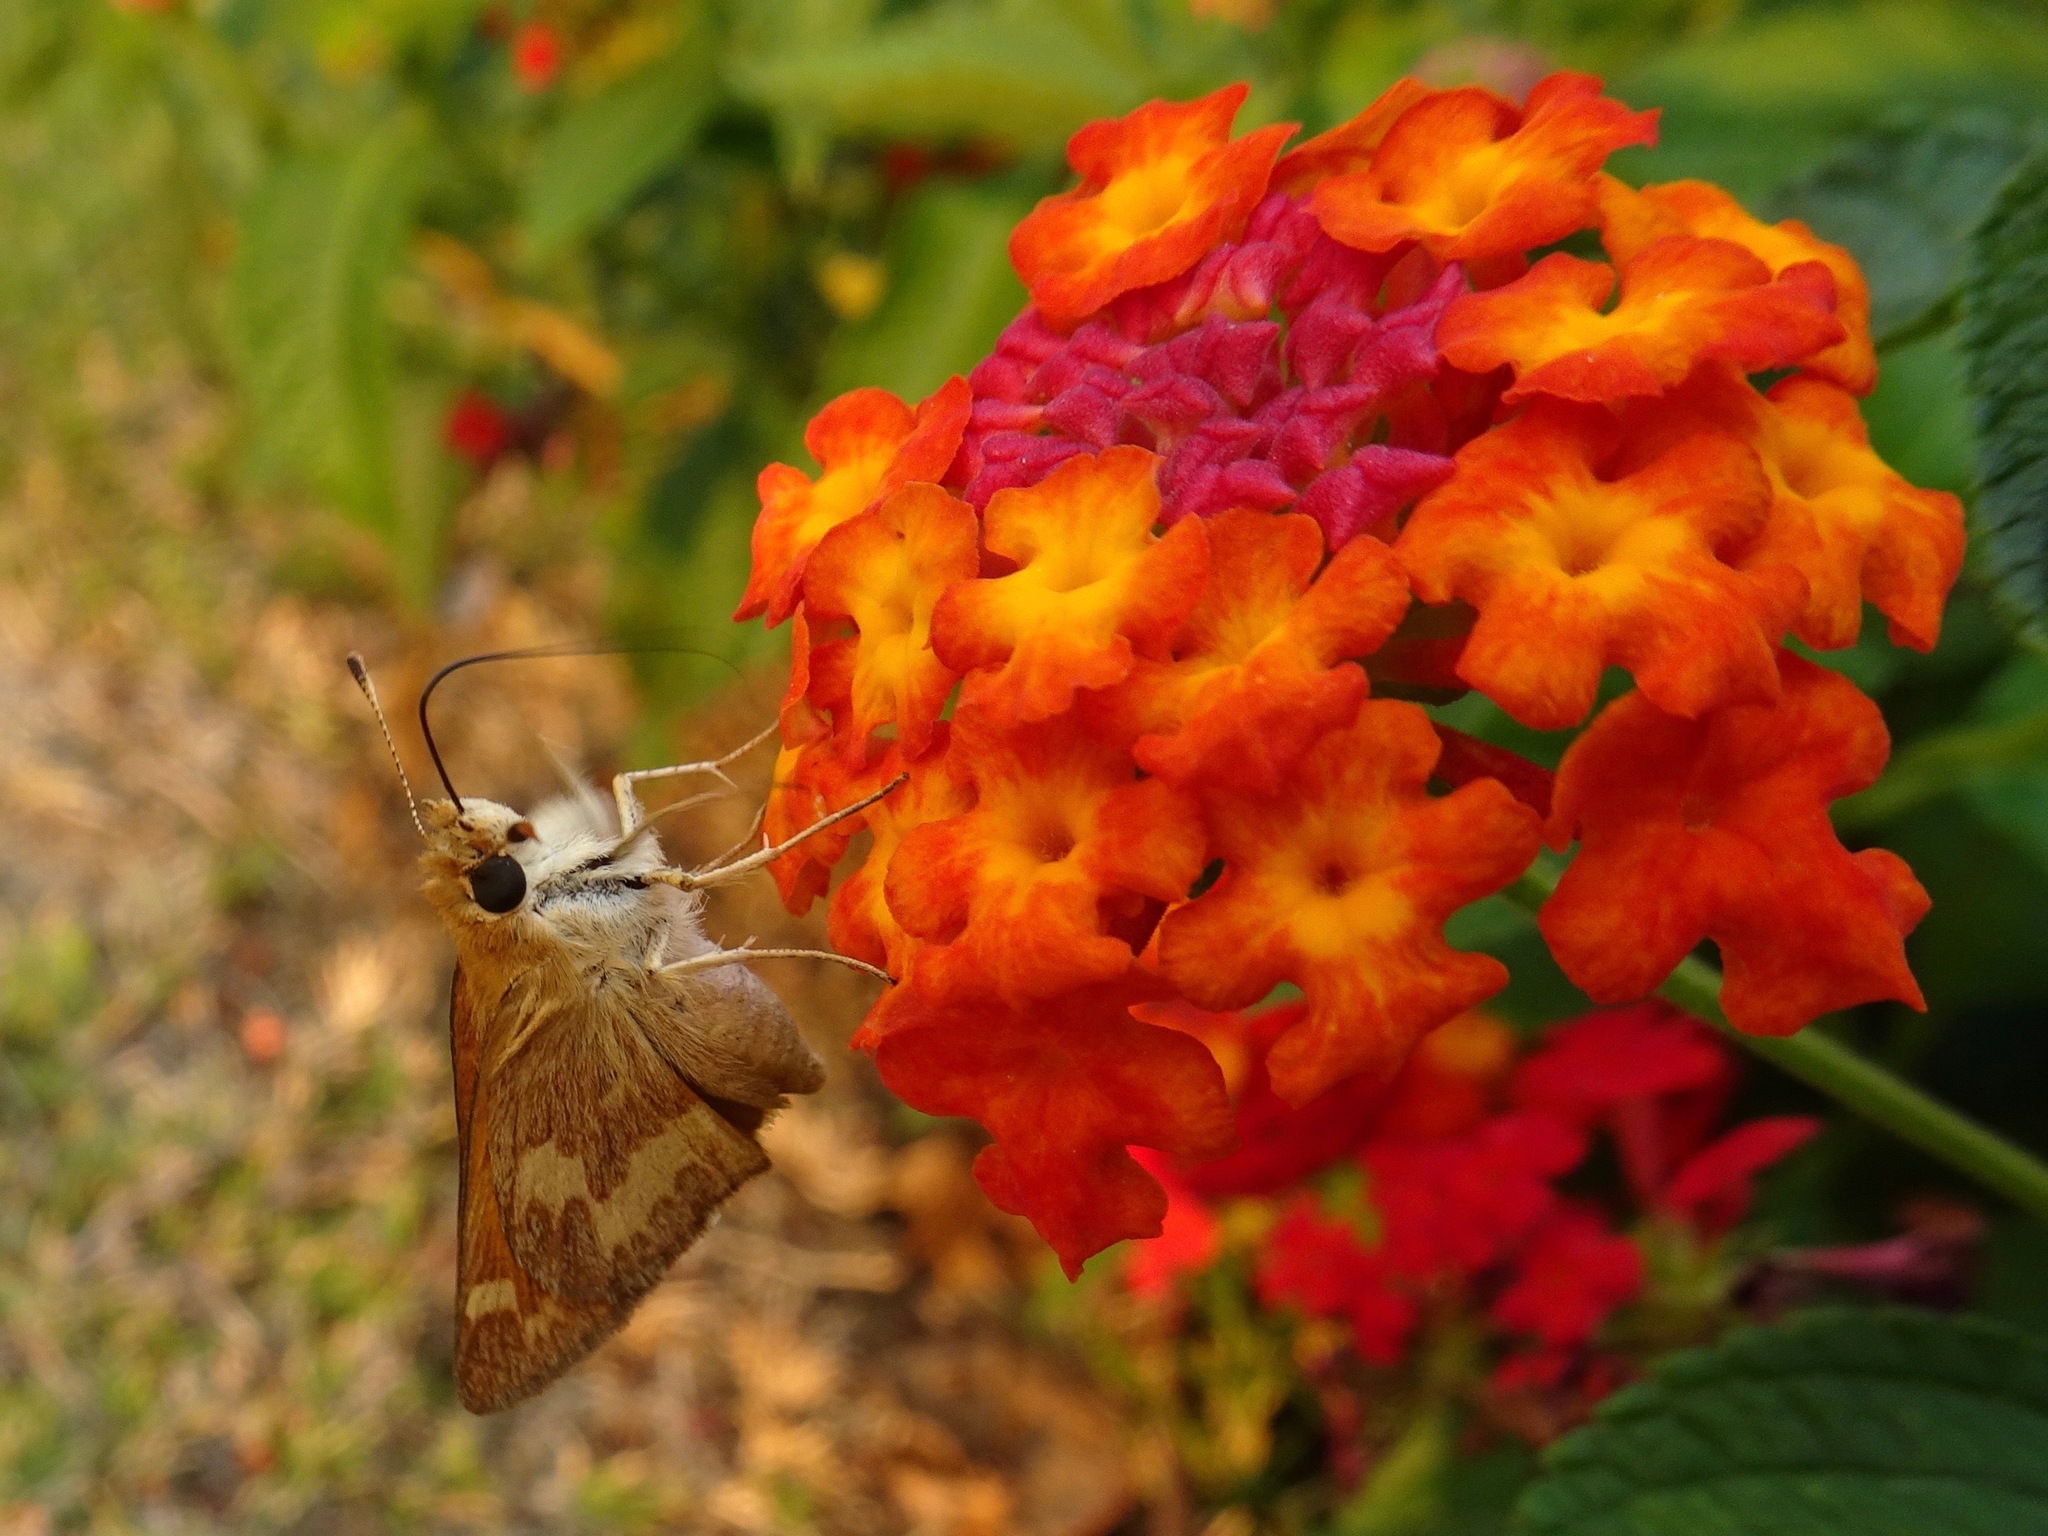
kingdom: Animalia
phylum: Arthropoda
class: Insecta
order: Lepidoptera
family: Hesperiidae
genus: Ochlodes
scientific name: Ochlodes sylvanoides
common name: Woodland skipper
